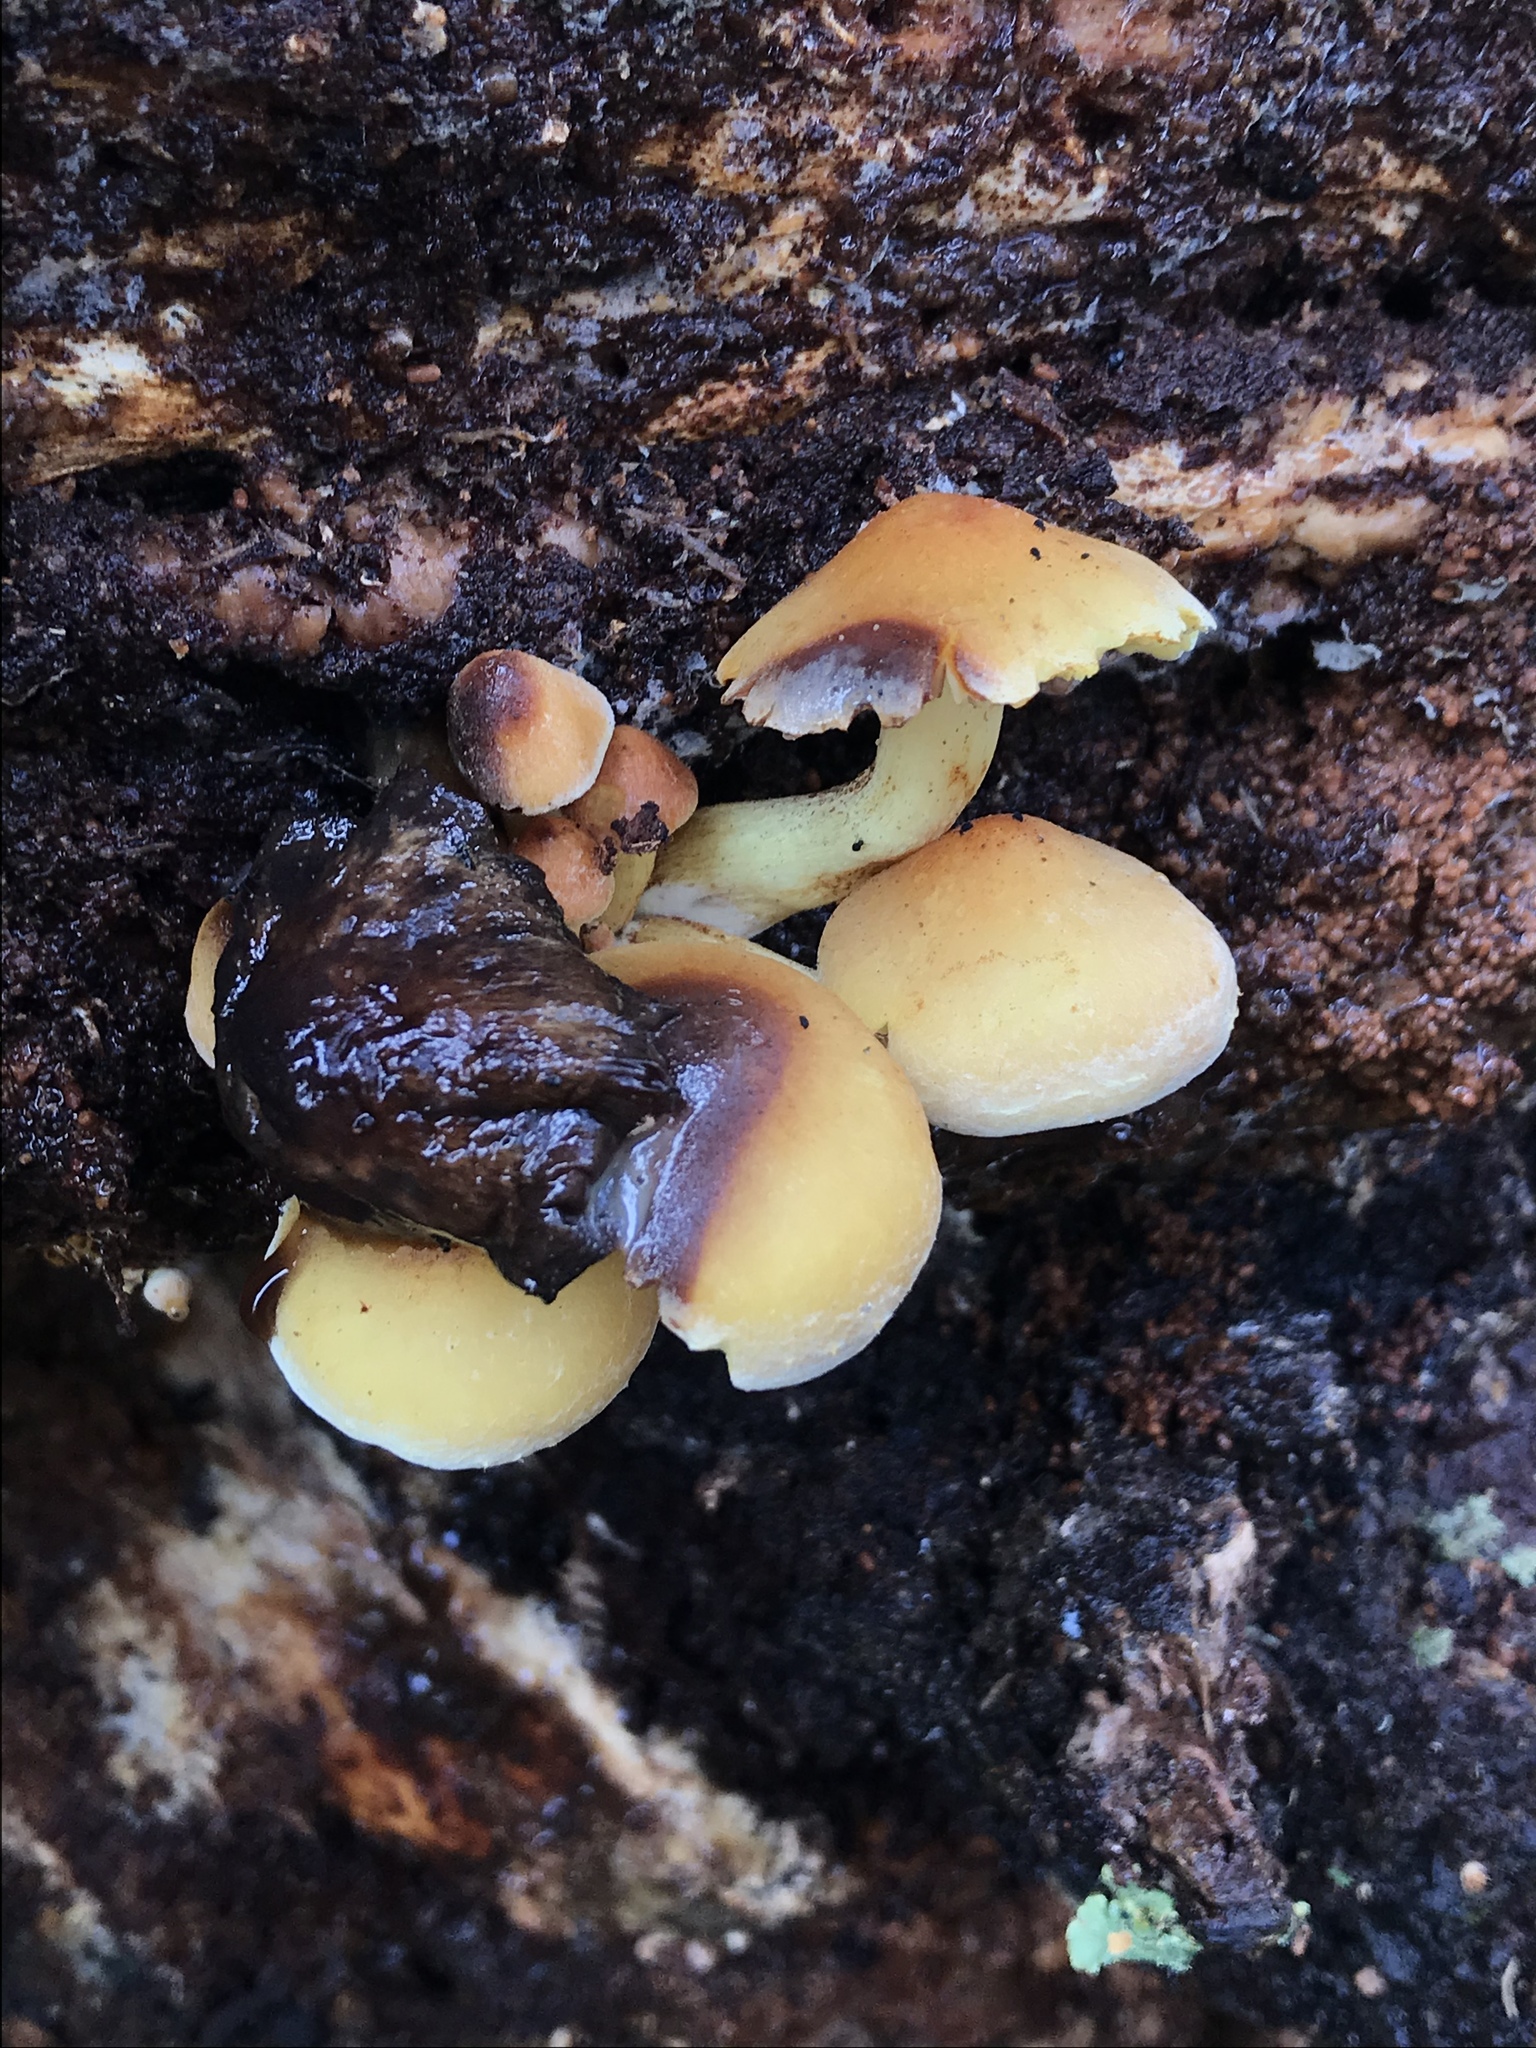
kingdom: Fungi
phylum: Basidiomycota
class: Agaricomycetes
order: Agaricales
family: Strophariaceae
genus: Hypholoma
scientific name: Hypholoma fasciculare
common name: Sulphur tuft
